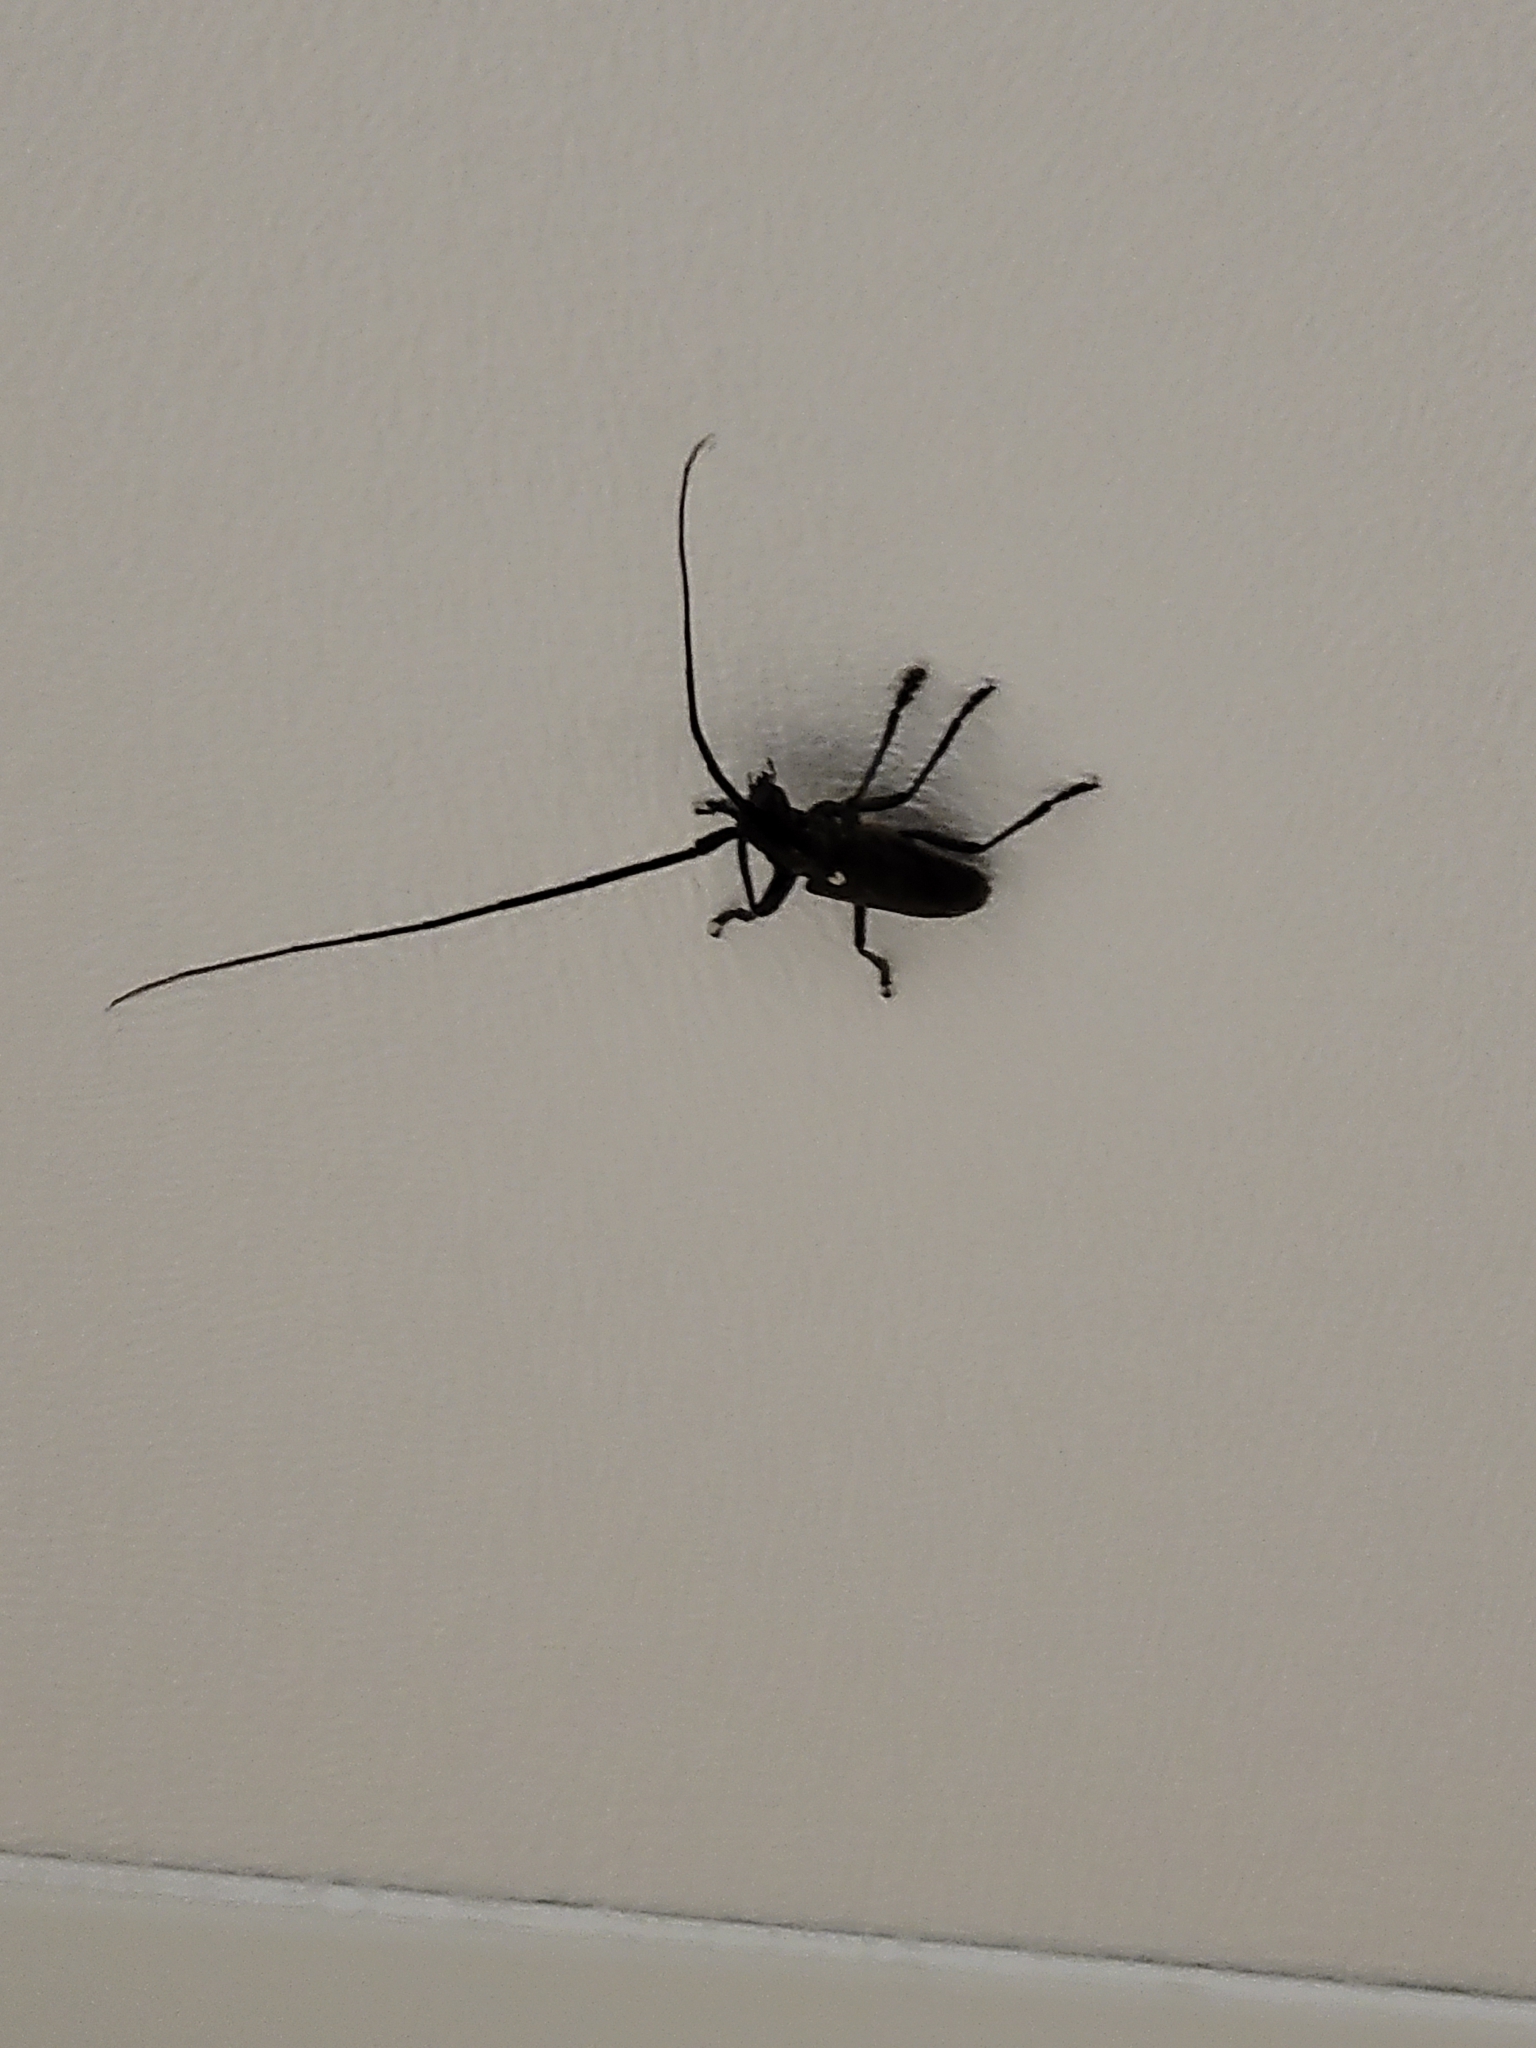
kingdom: Animalia
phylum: Arthropoda
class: Insecta
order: Coleoptera
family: Cerambycidae
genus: Monochamus
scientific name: Monochamus scutellatus
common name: White-spotted sawyer beetle
